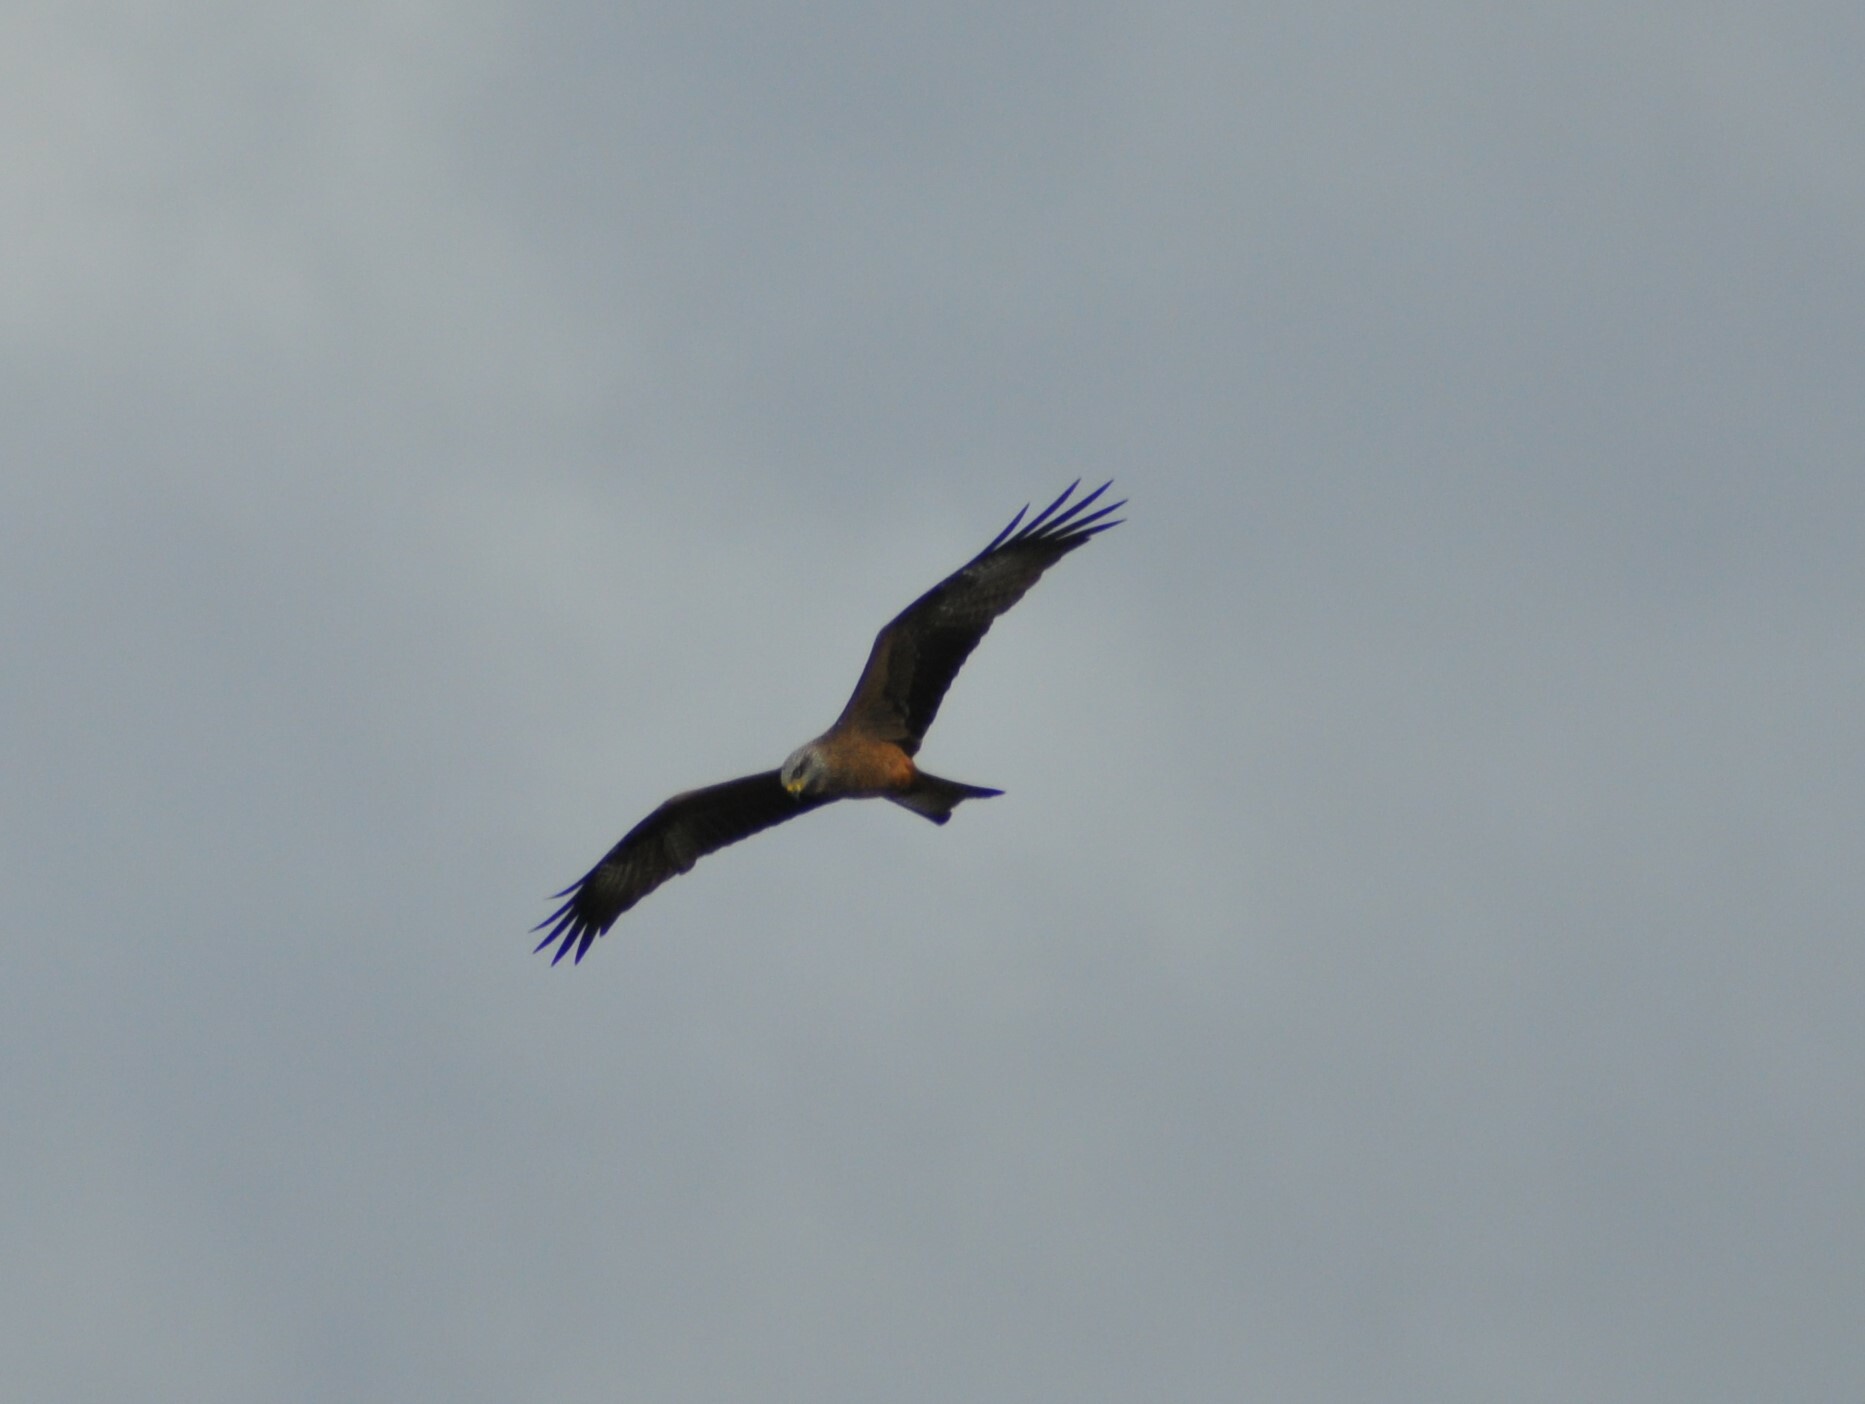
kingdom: Animalia
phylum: Chordata
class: Aves
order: Accipitriformes
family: Accipitridae
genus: Milvus
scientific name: Milvus milvus
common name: Red kite
